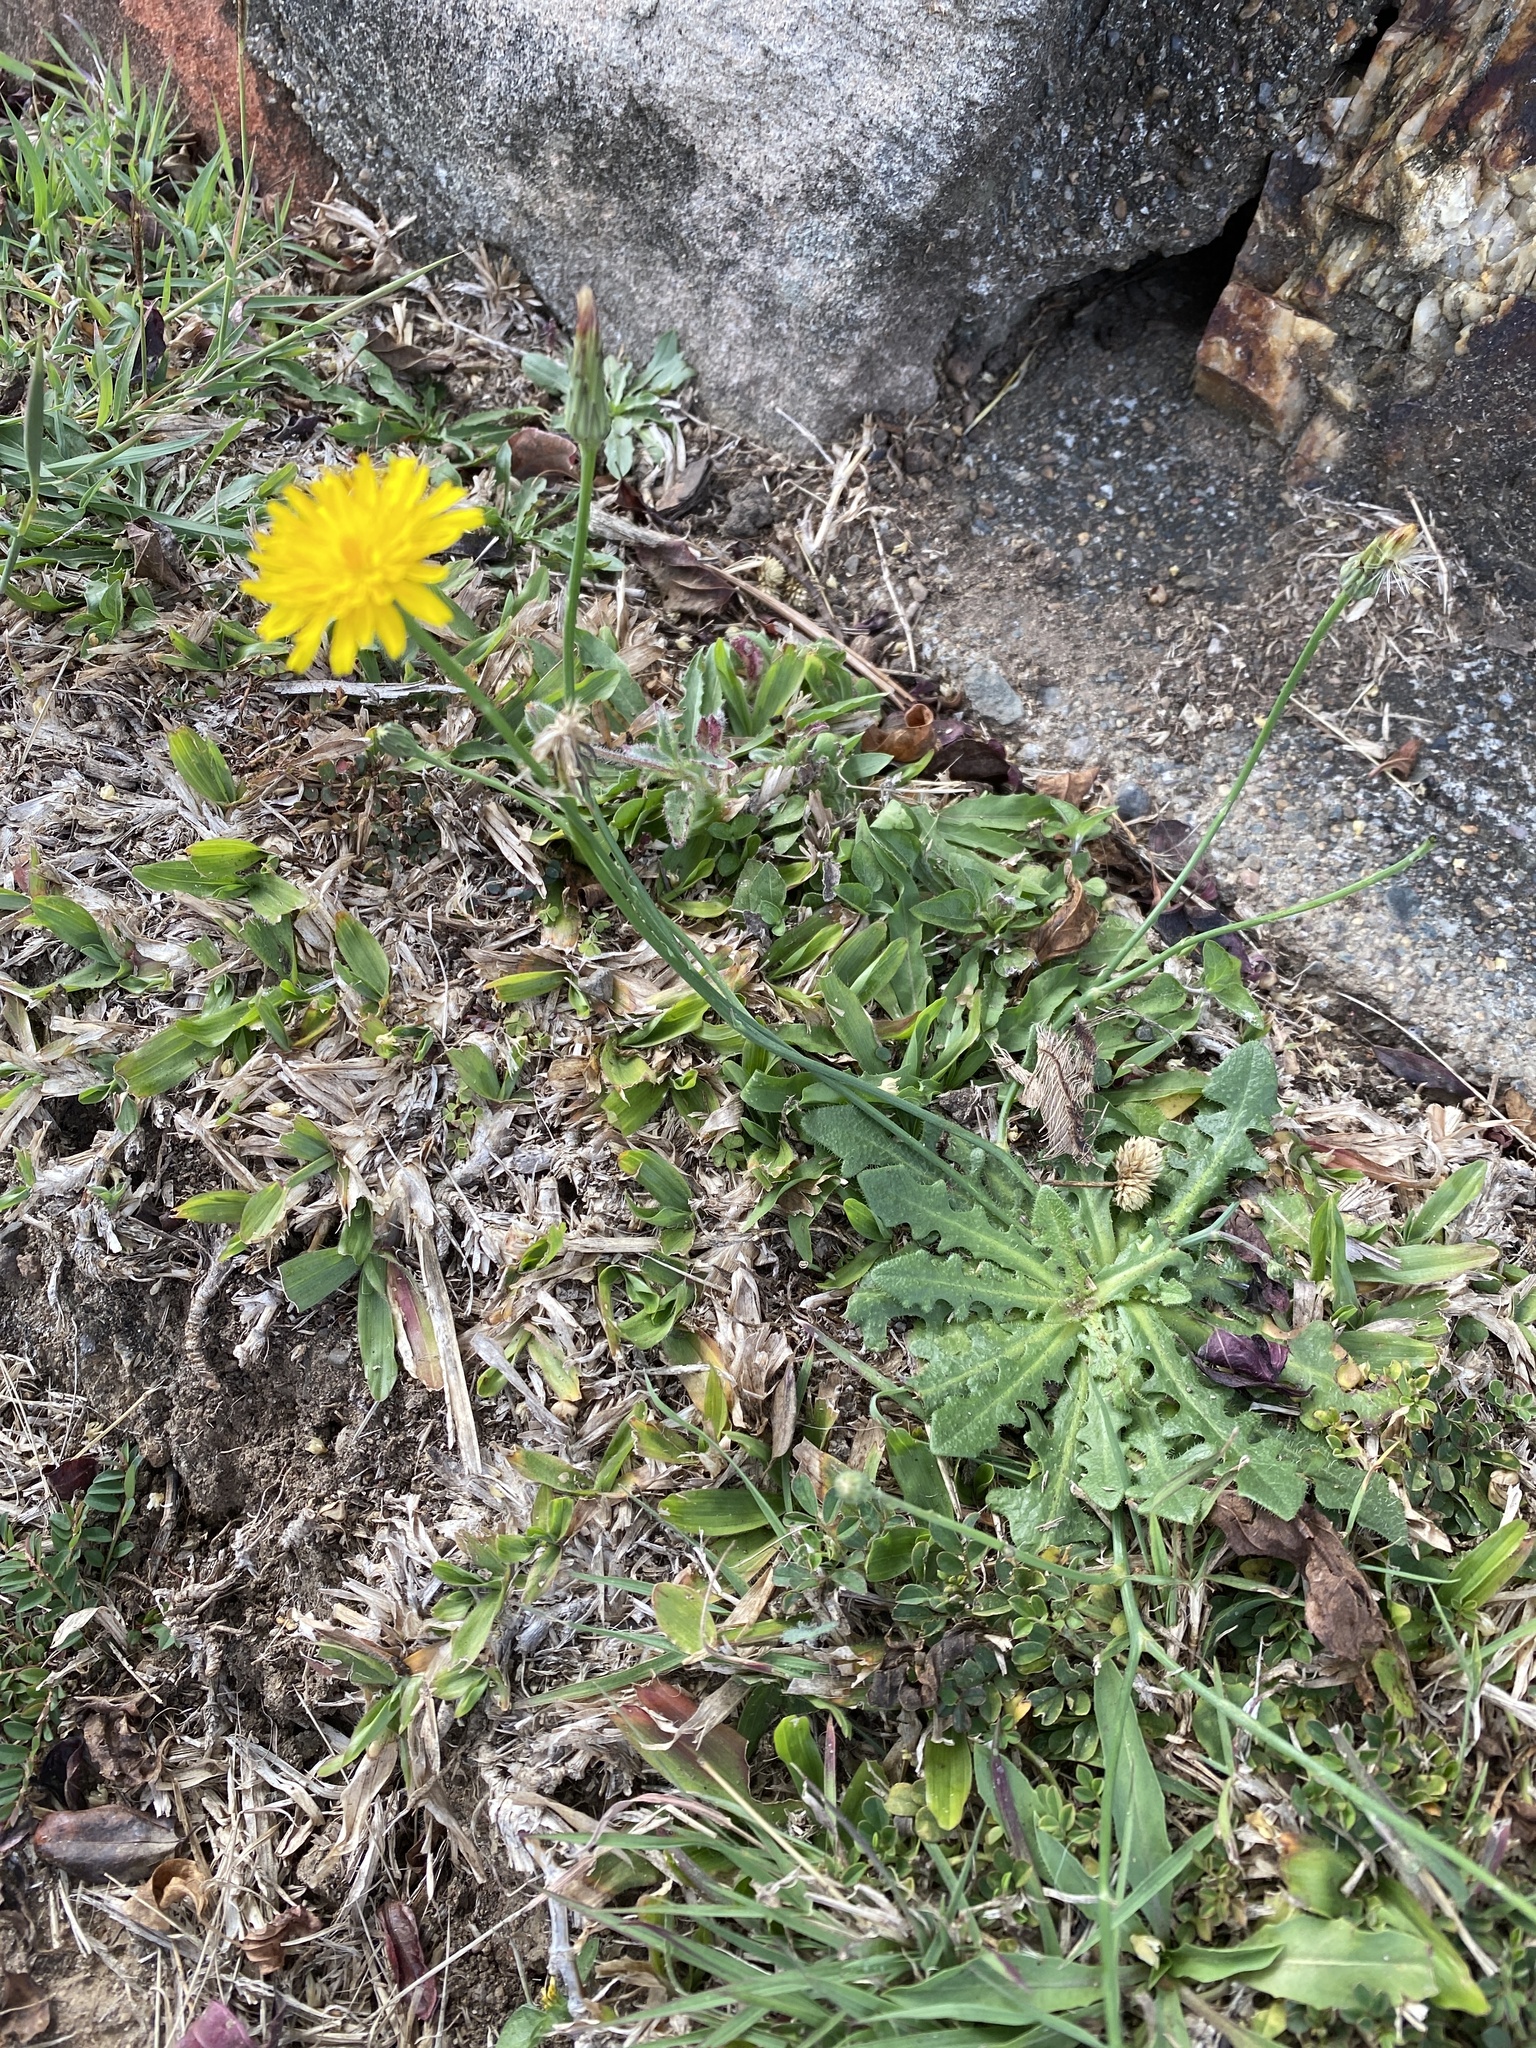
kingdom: Plantae
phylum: Tracheophyta
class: Magnoliopsida
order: Asterales
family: Asteraceae
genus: Hypochaeris
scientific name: Hypochaeris radicata
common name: Flatweed
